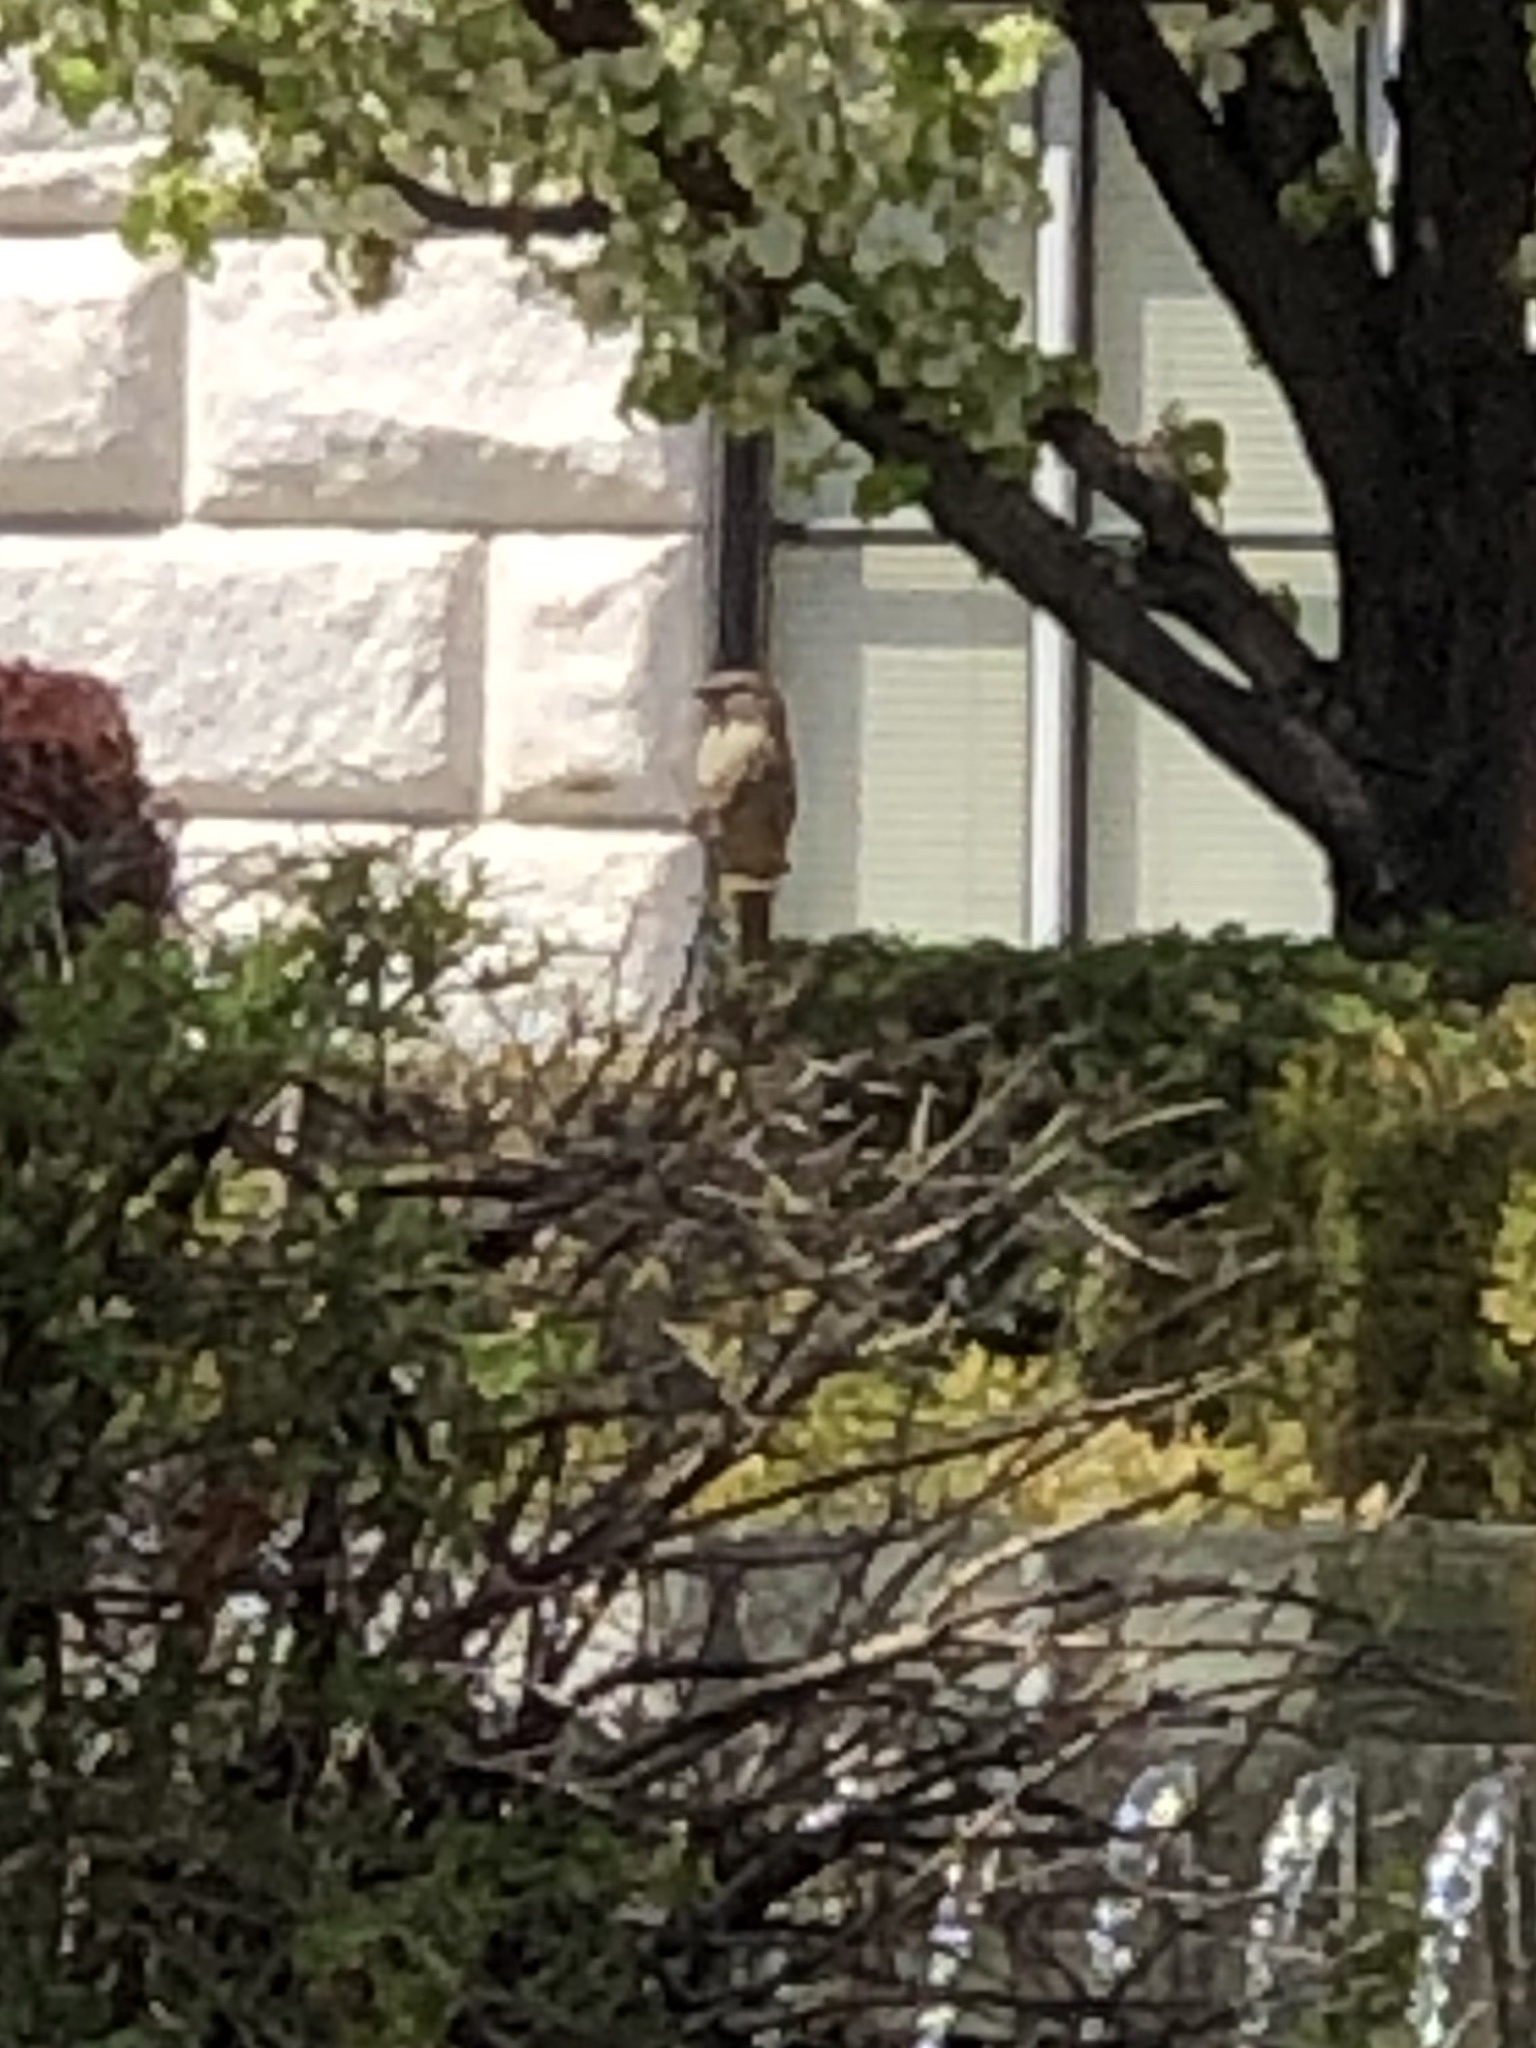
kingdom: Animalia
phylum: Chordata
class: Aves
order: Passeriformes
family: Passeridae
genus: Passer
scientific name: Passer domesticus
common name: House sparrow
